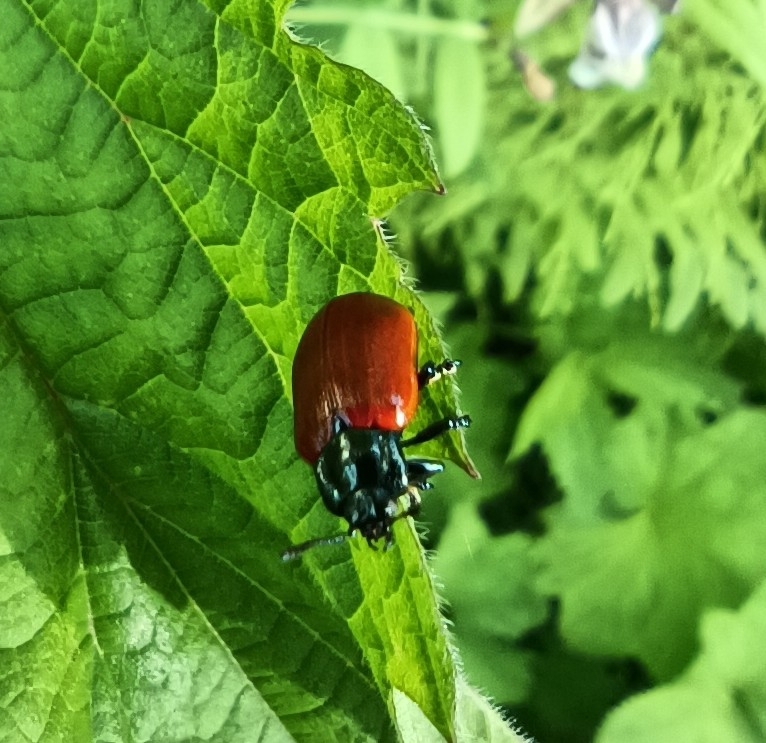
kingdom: Animalia
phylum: Arthropoda
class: Insecta
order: Coleoptera
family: Chrysomelidae
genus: Chrysomela
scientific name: Chrysomela populi
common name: Red poplar leaf beetle
